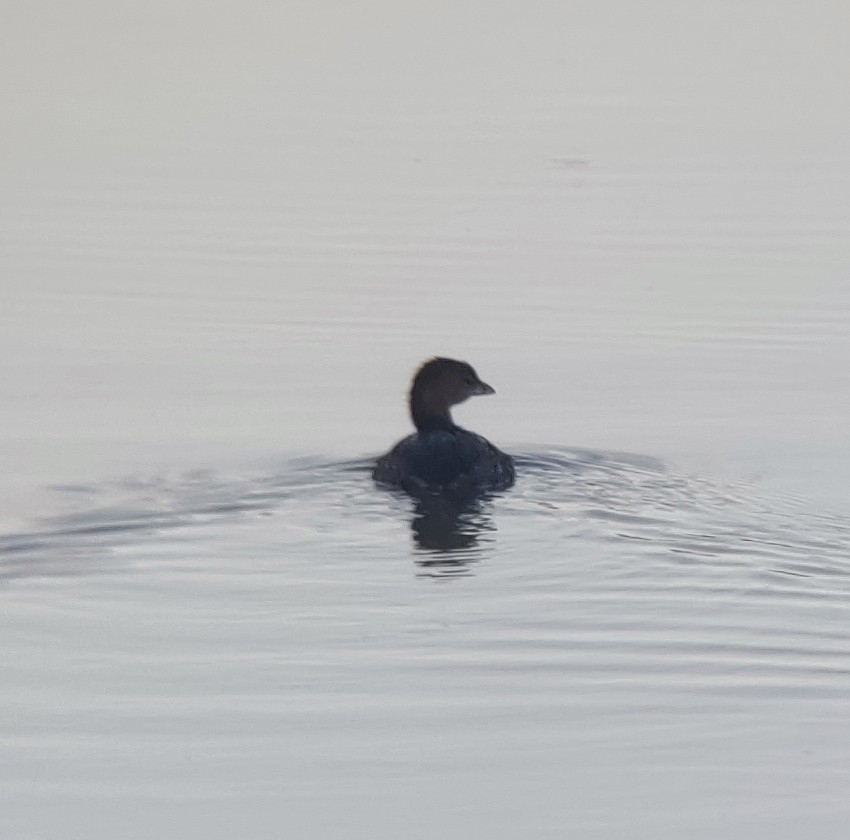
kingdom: Animalia
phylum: Chordata
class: Aves
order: Podicipediformes
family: Podicipedidae
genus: Podilymbus
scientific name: Podilymbus podiceps
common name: Pied-billed grebe
